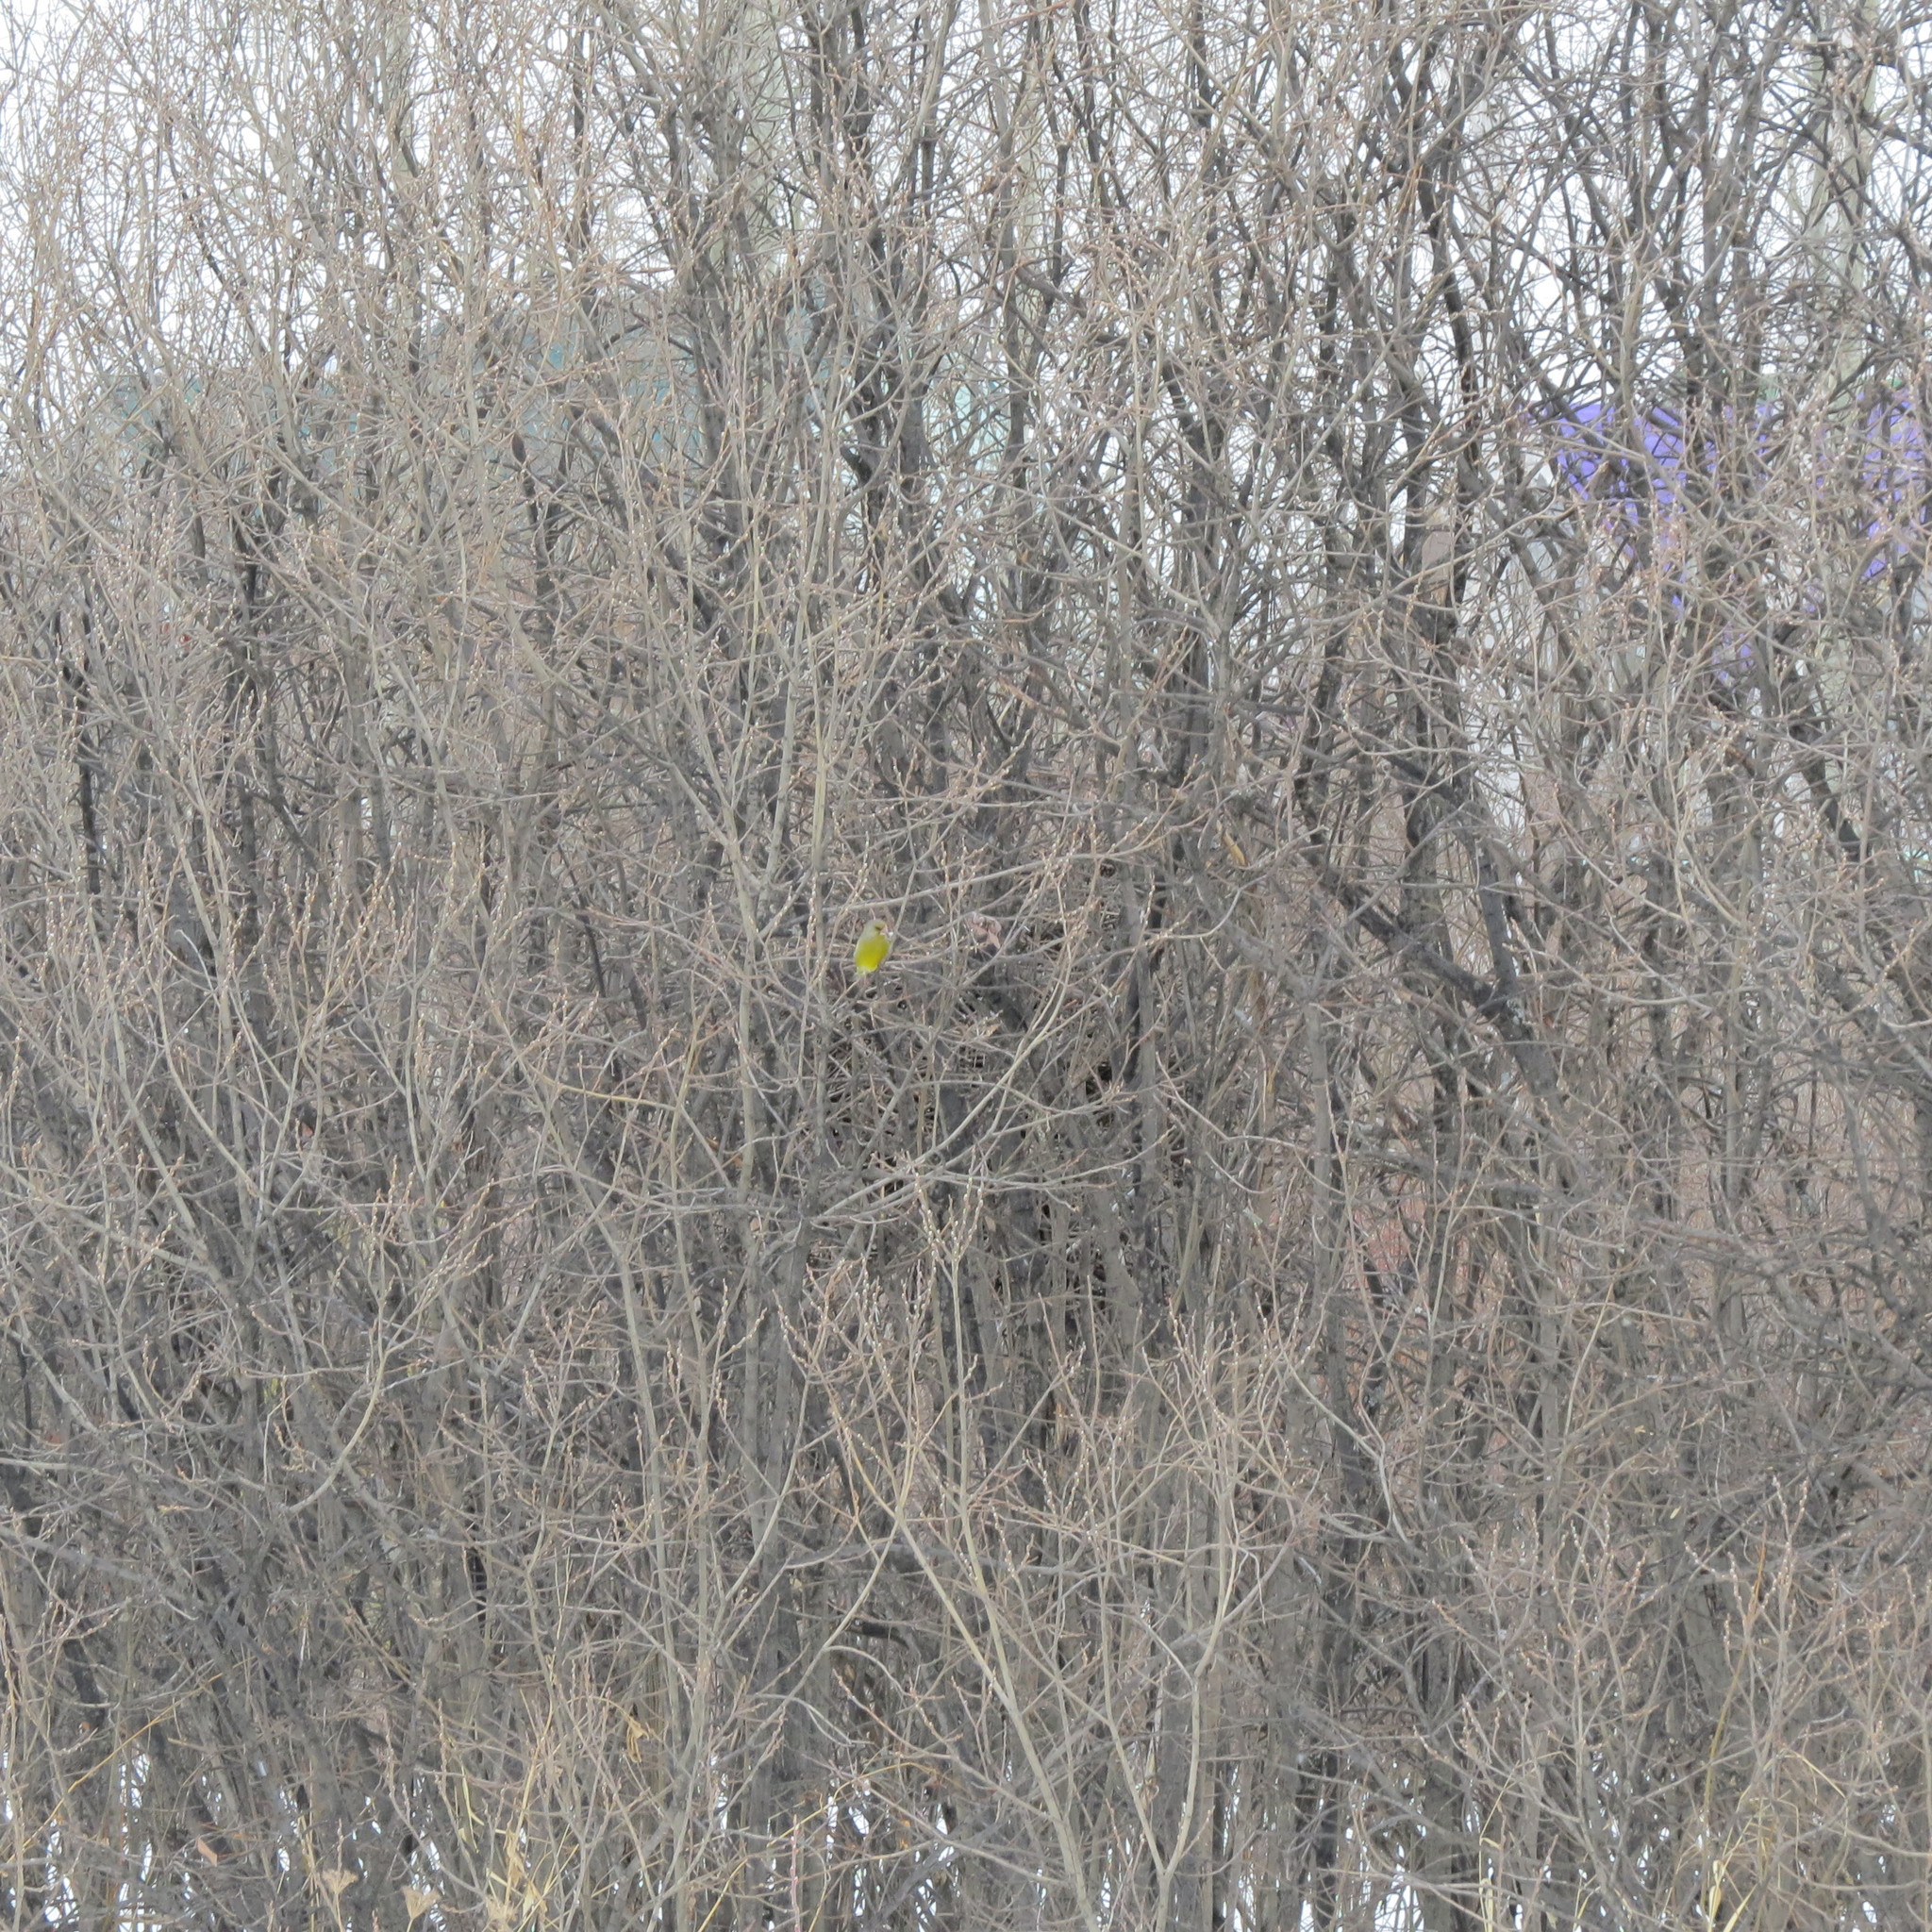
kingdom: Plantae
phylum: Tracheophyta
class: Liliopsida
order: Poales
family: Poaceae
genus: Chloris
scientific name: Chloris chloris
